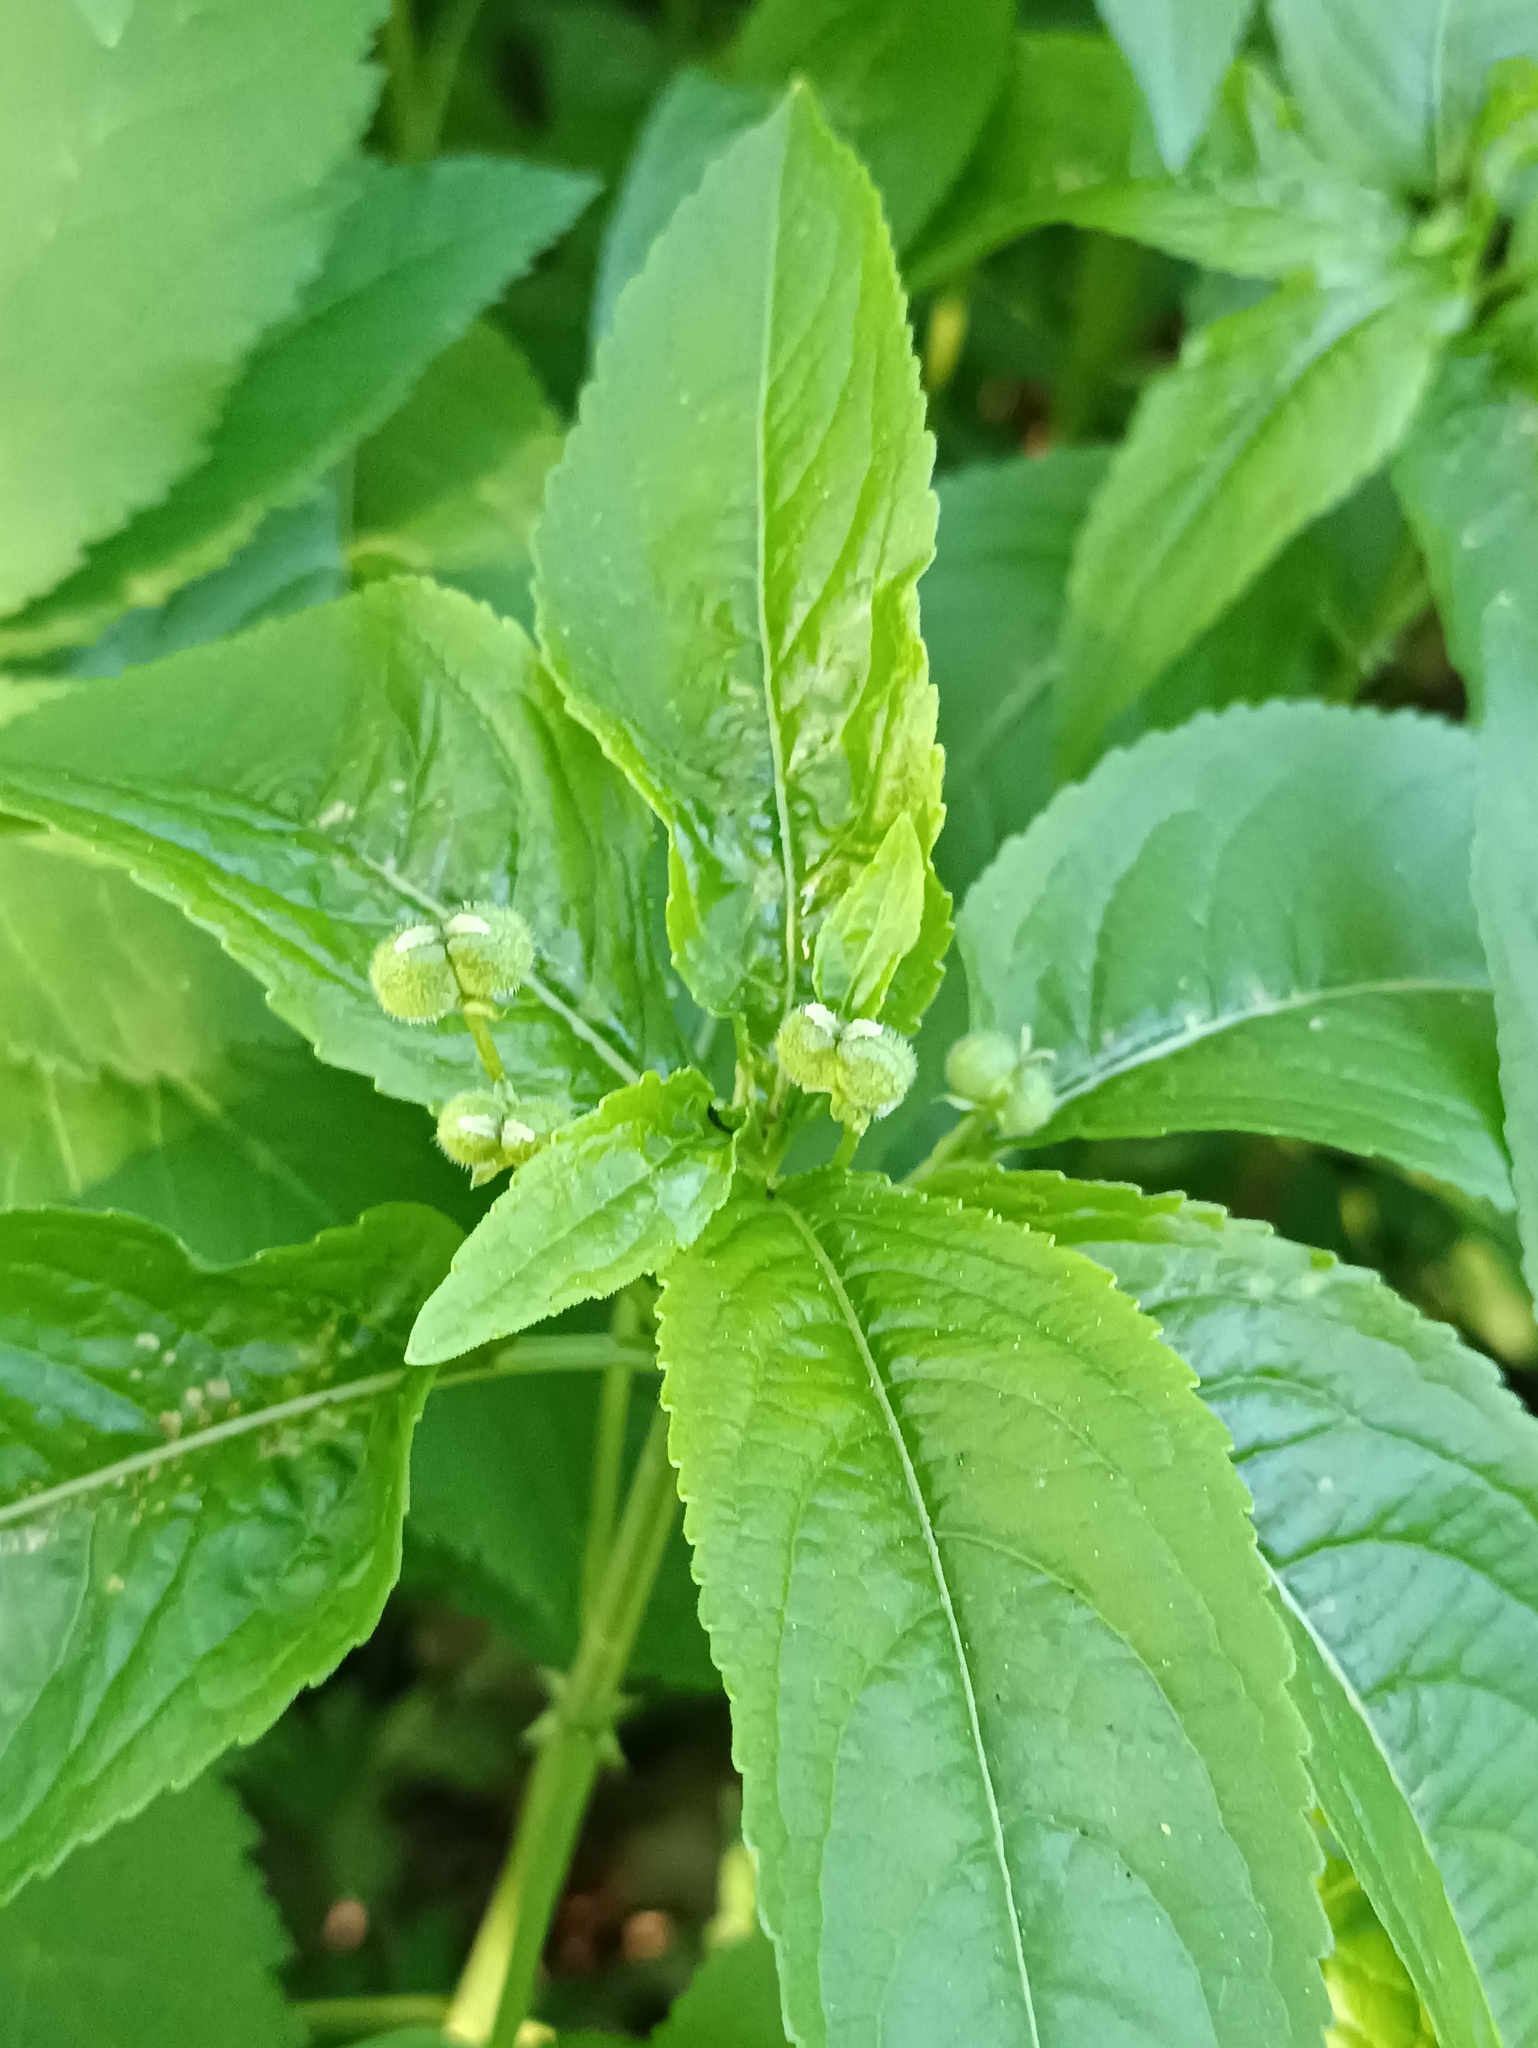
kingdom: Plantae
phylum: Tracheophyta
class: Magnoliopsida
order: Malpighiales
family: Euphorbiaceae
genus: Mercurialis
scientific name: Mercurialis perennis
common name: Dog mercury
